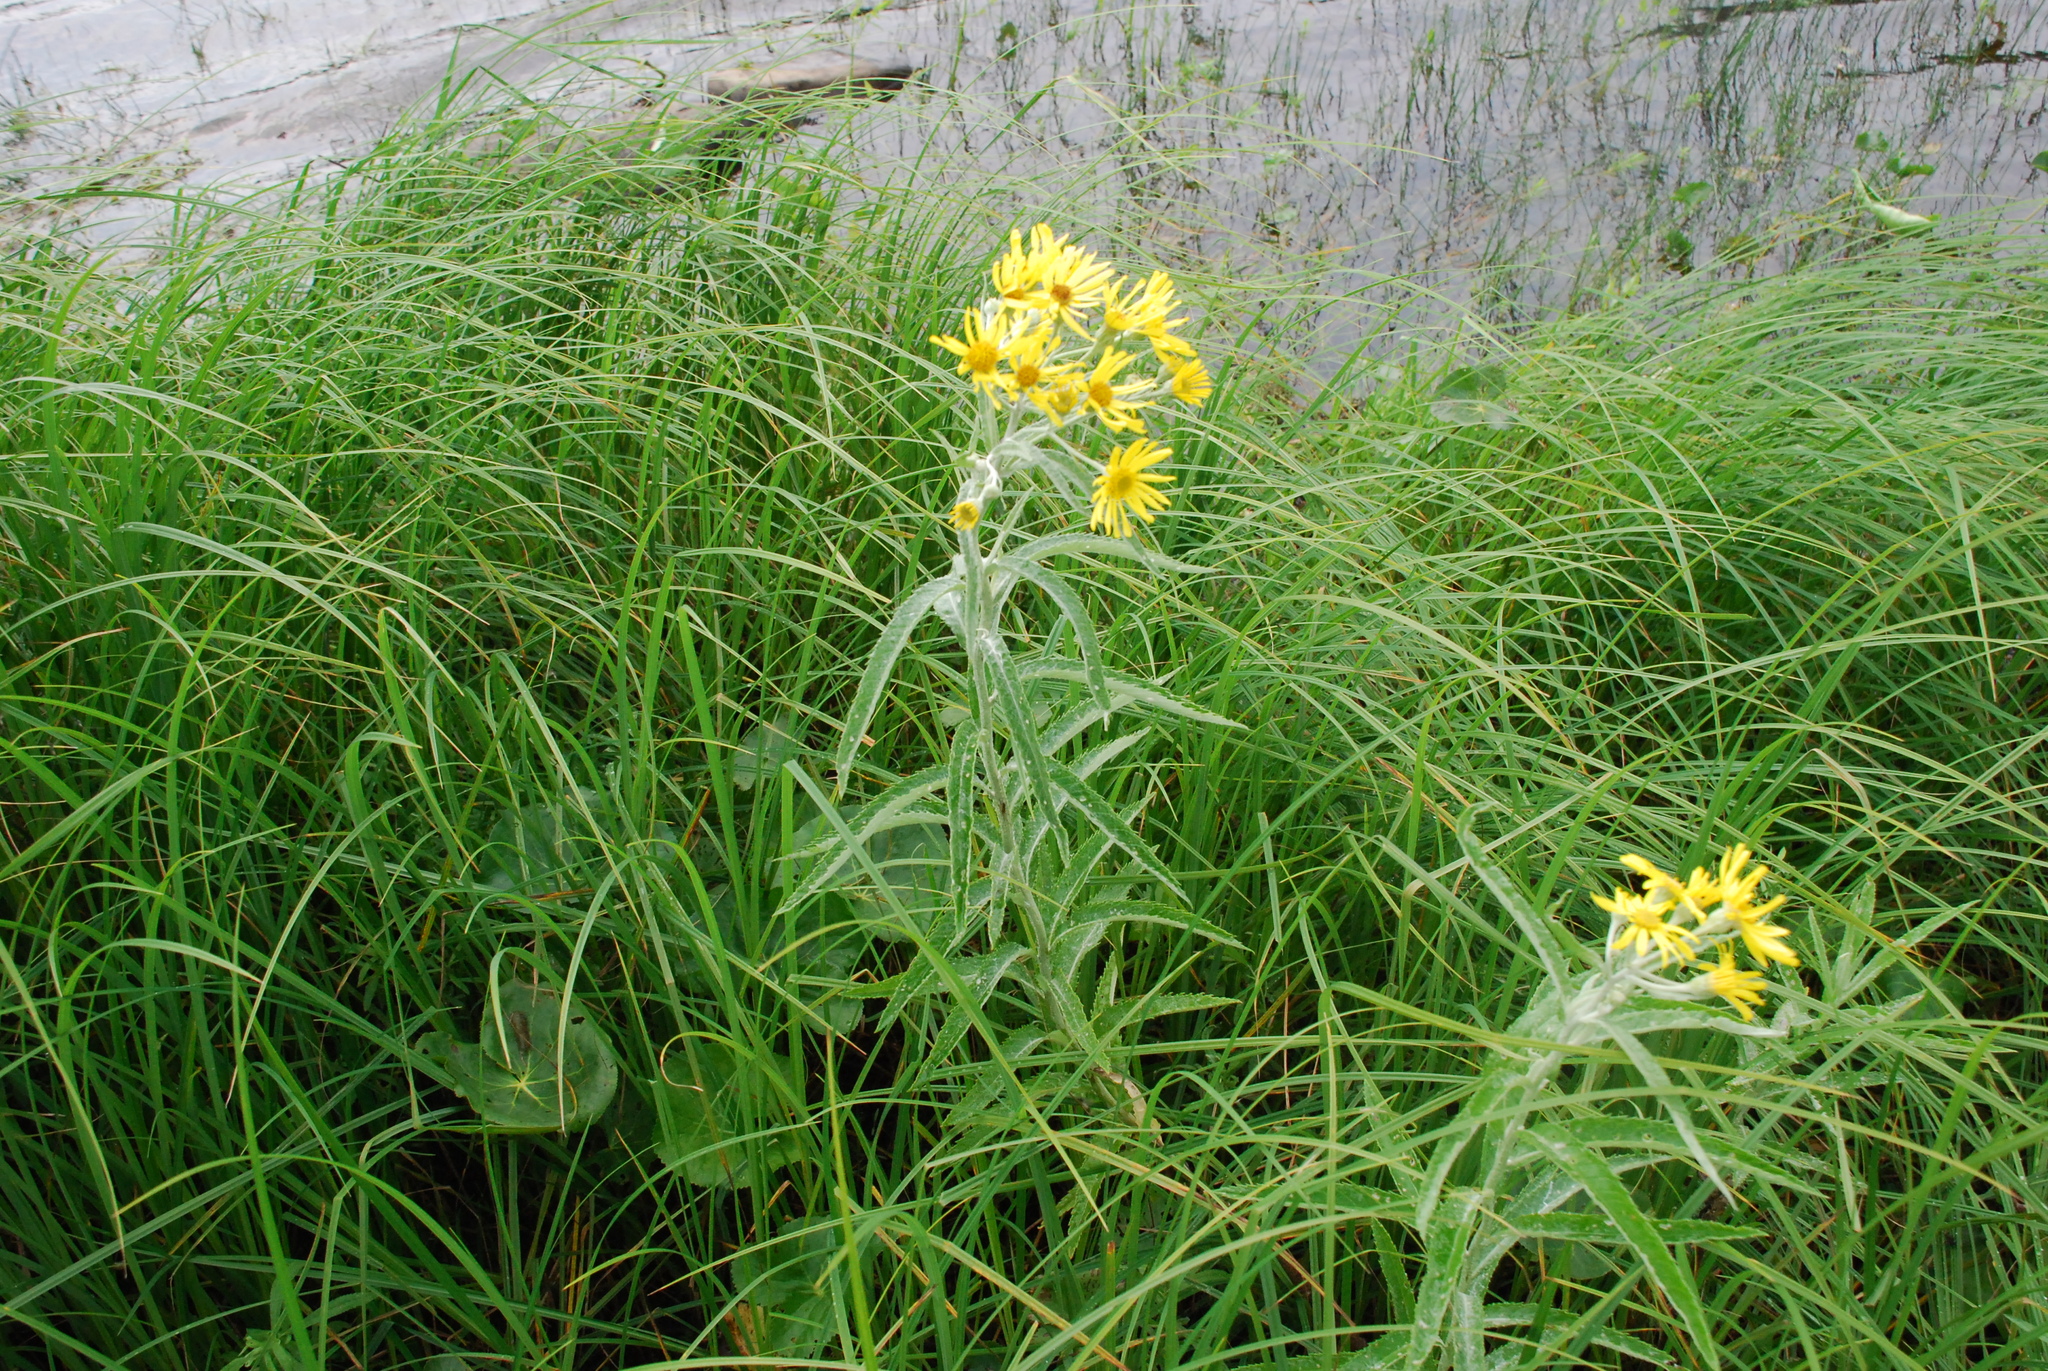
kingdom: Plantae
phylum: Tracheophyta
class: Magnoliopsida
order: Asterales
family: Asteraceae
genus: Jacobaea
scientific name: Jacobaea paludosa
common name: Fen ragwort
